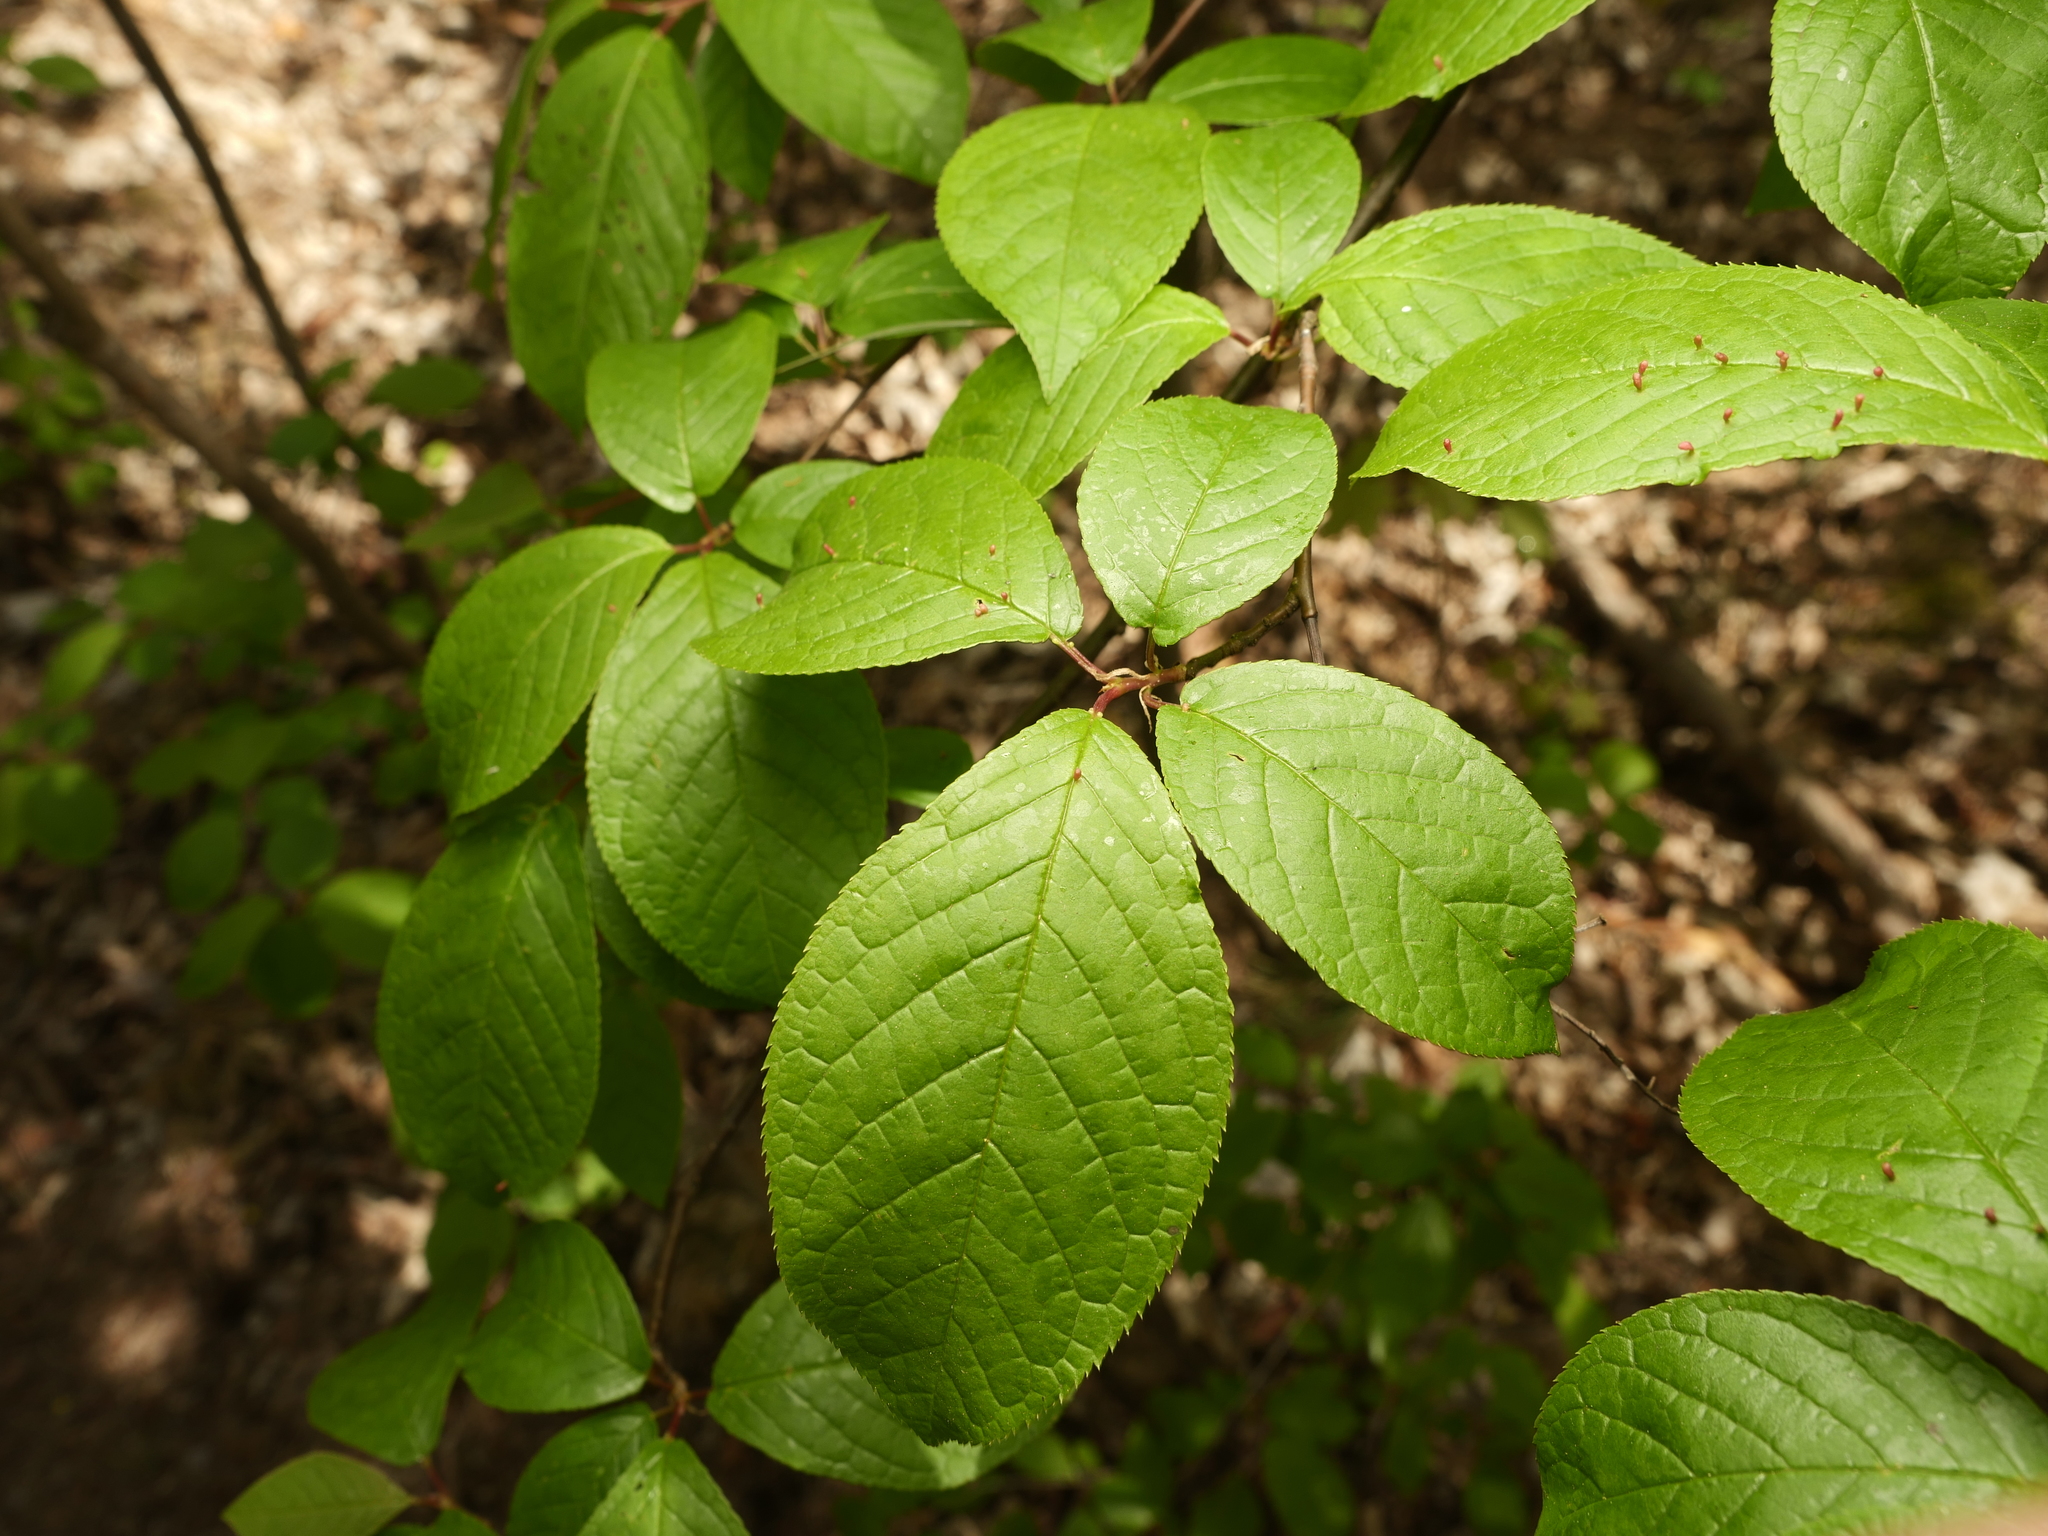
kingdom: Plantae
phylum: Tracheophyta
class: Magnoliopsida
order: Rosales
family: Rosaceae
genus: Prunus
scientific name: Prunus padus
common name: Bird cherry
